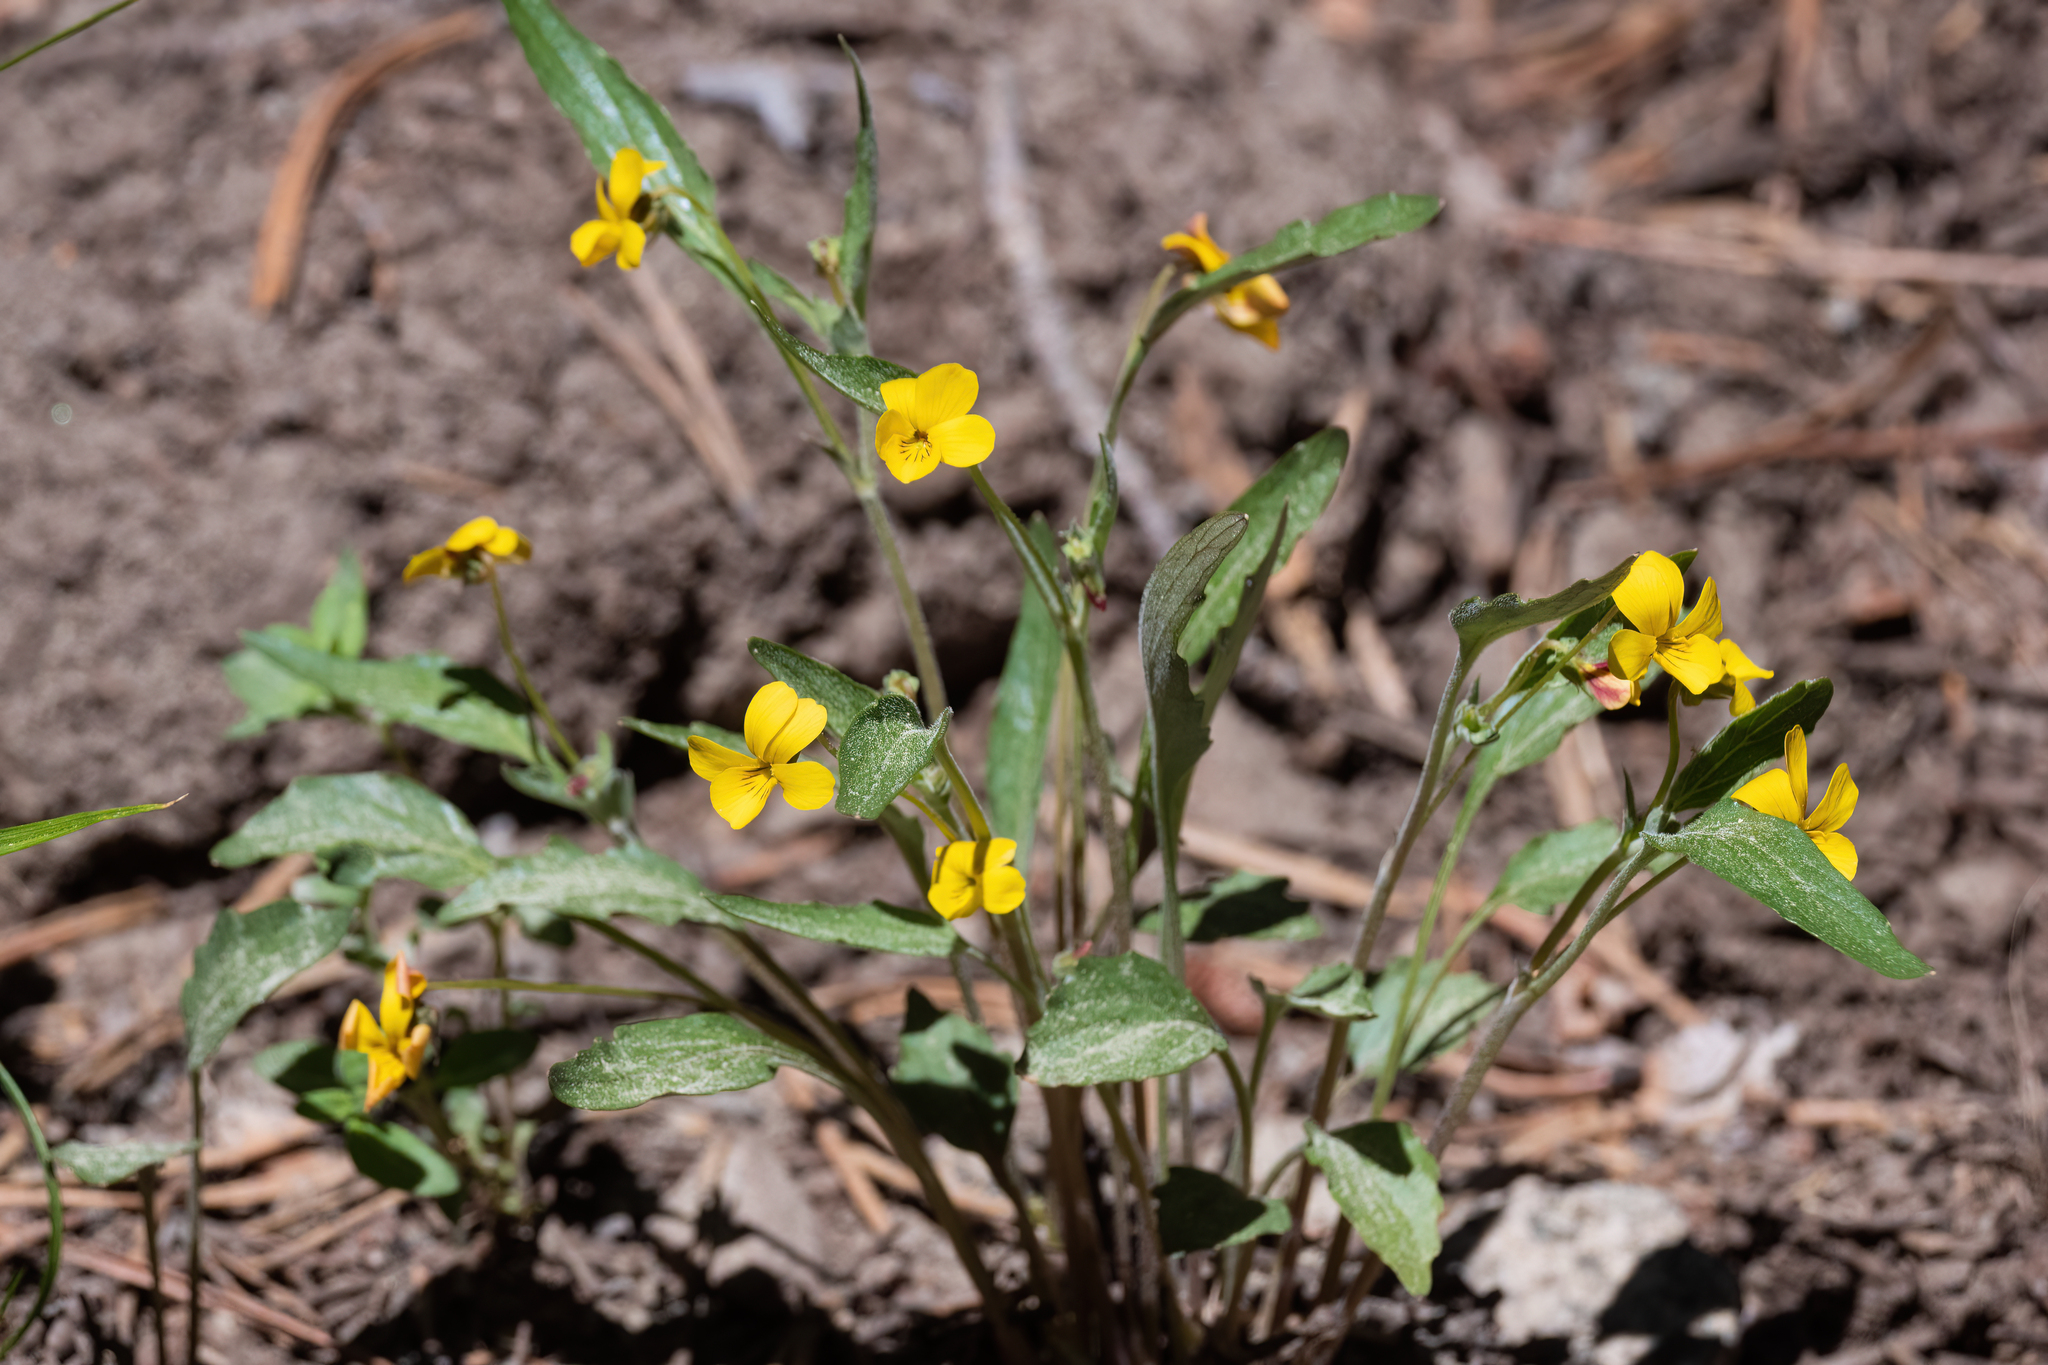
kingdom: Plantae
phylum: Tracheophyta
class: Magnoliopsida
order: Malpighiales
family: Violaceae
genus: Viola
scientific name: Viola pinetorum
